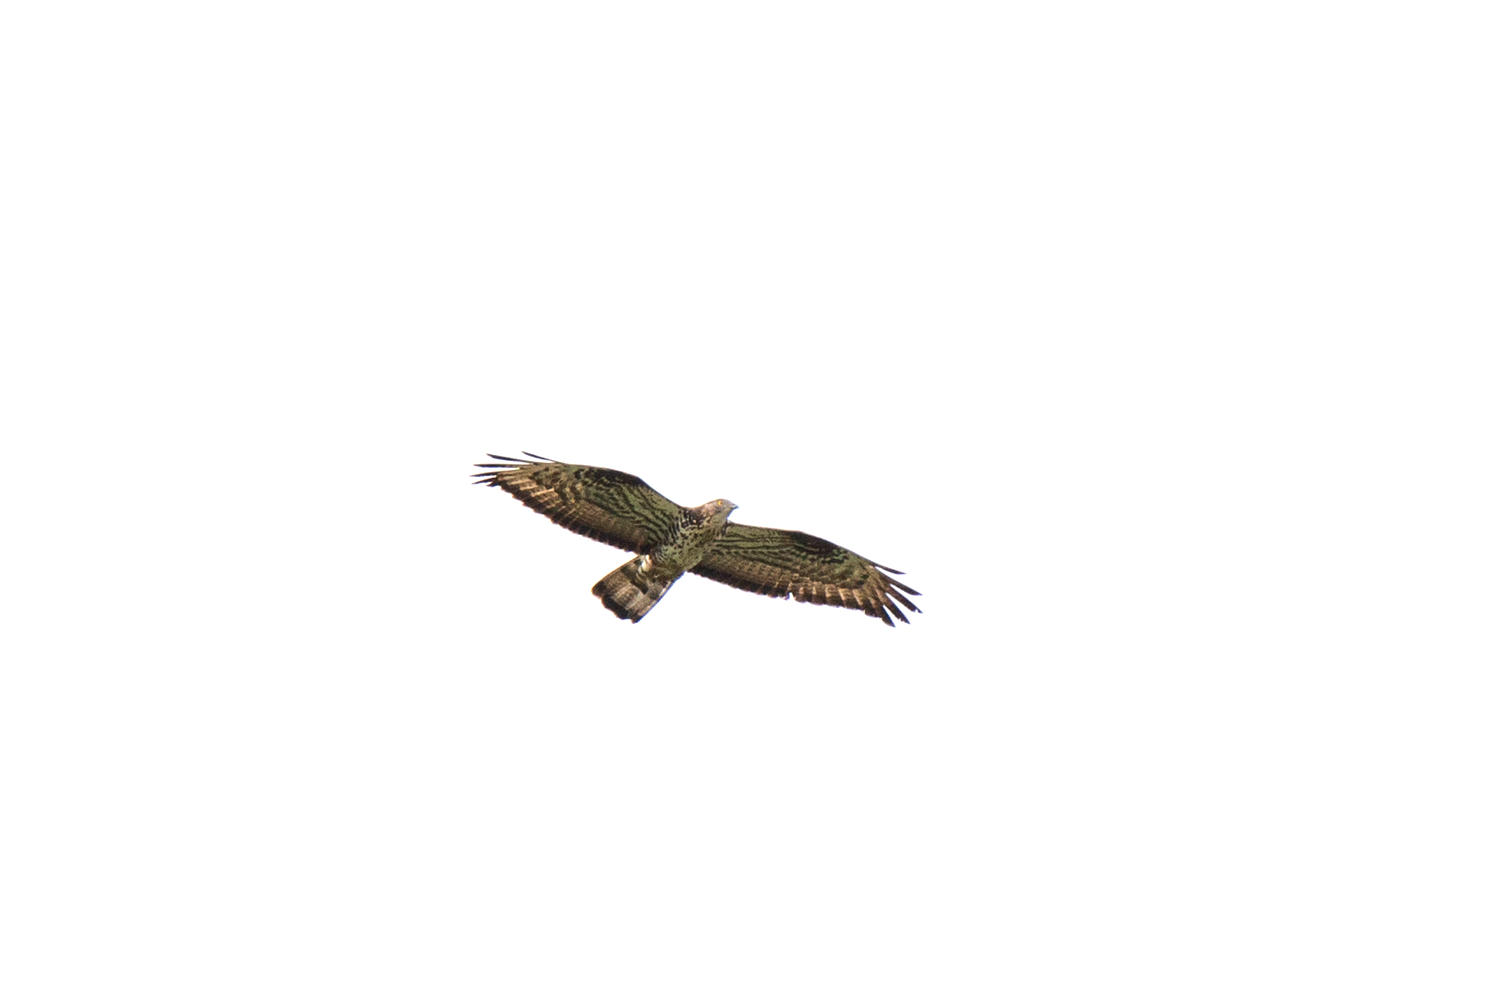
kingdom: Animalia
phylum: Chordata
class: Aves
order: Accipitriformes
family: Accipitridae
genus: Pernis
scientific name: Pernis apivorus
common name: European honey buzzard
